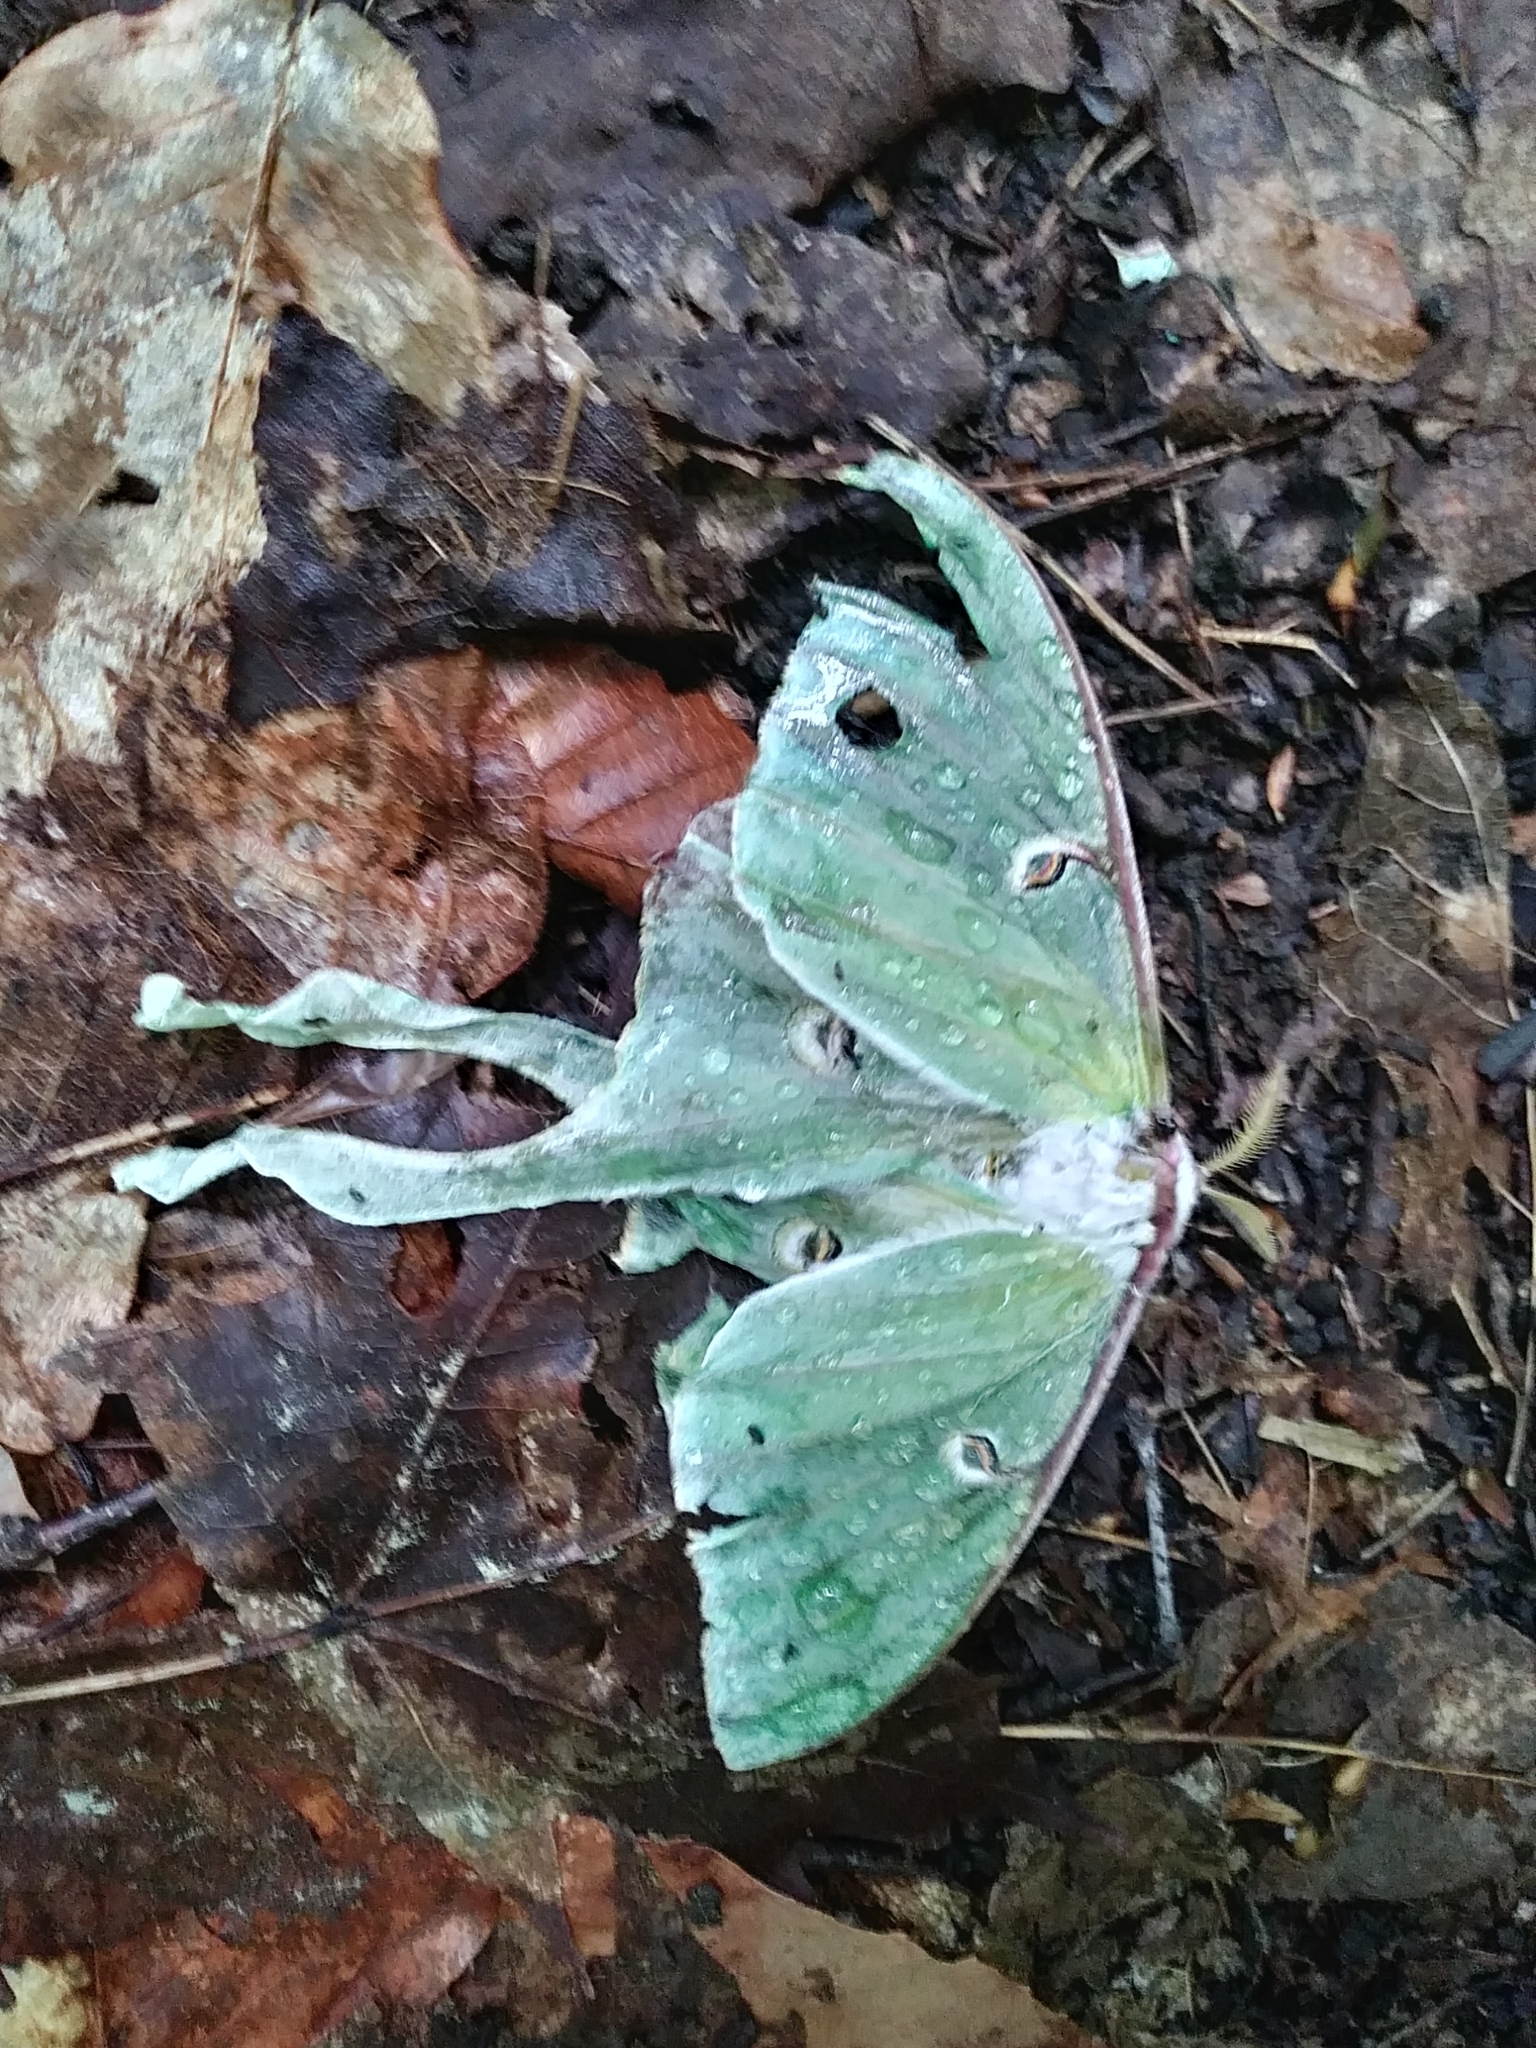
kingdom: Animalia
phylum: Arthropoda
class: Insecta
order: Lepidoptera
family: Saturniidae
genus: Actias
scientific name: Actias luna
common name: Luna moth
